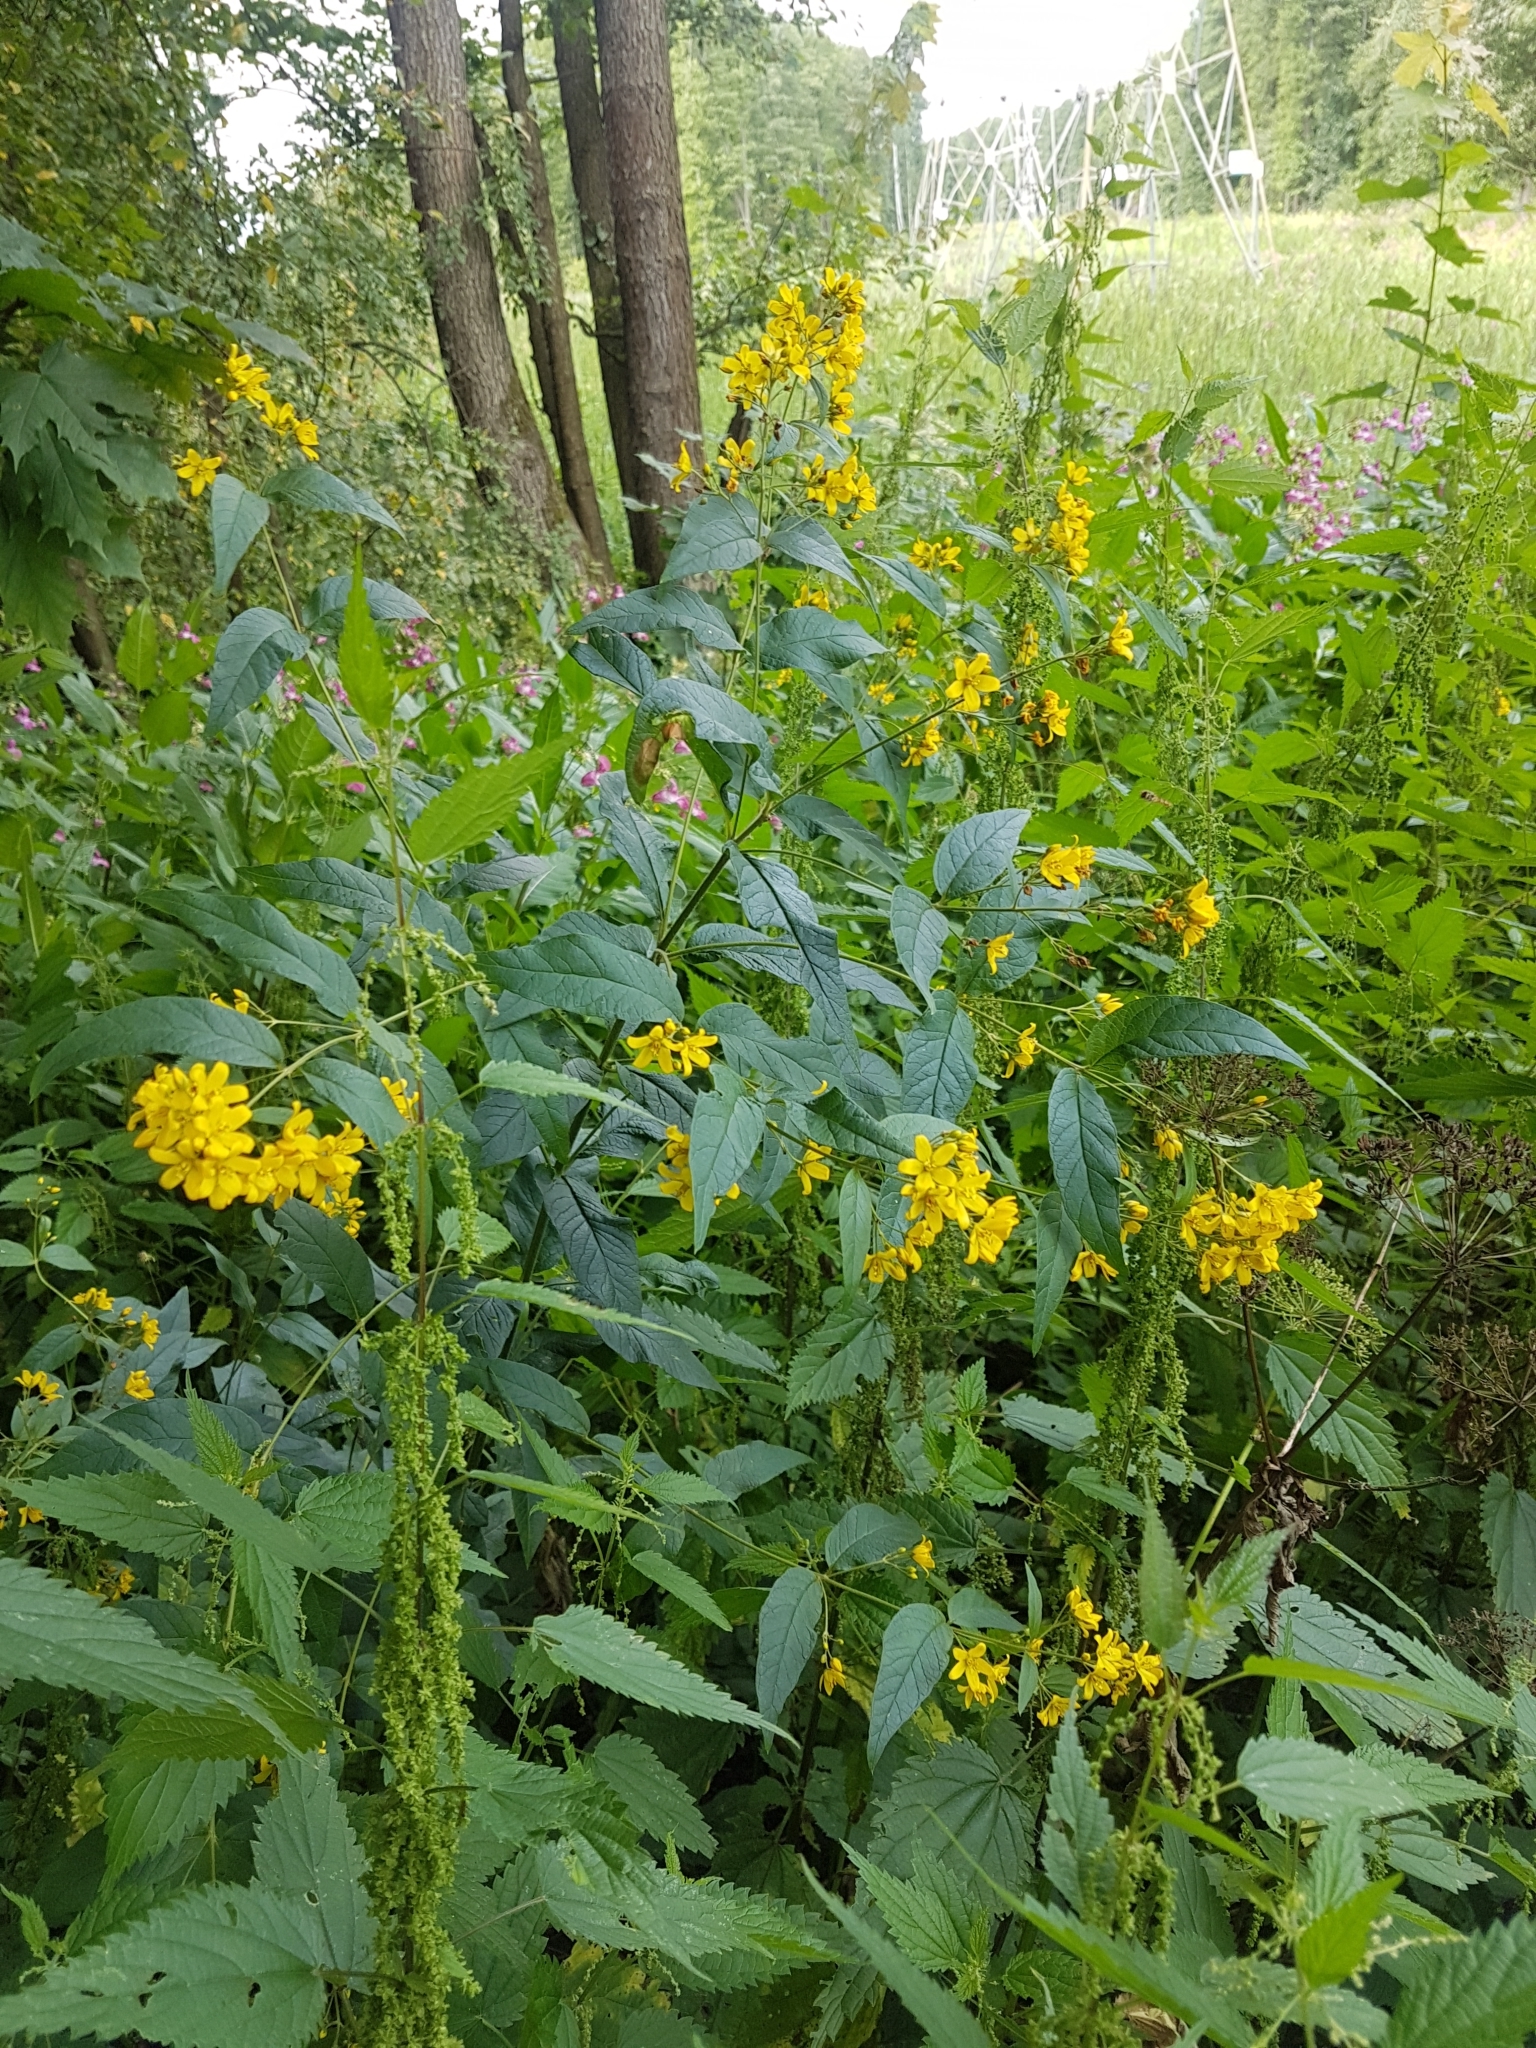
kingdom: Plantae
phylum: Tracheophyta
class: Magnoliopsida
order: Ericales
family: Primulaceae
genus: Lysimachia
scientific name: Lysimachia vulgaris
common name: Yellow loosestrife
